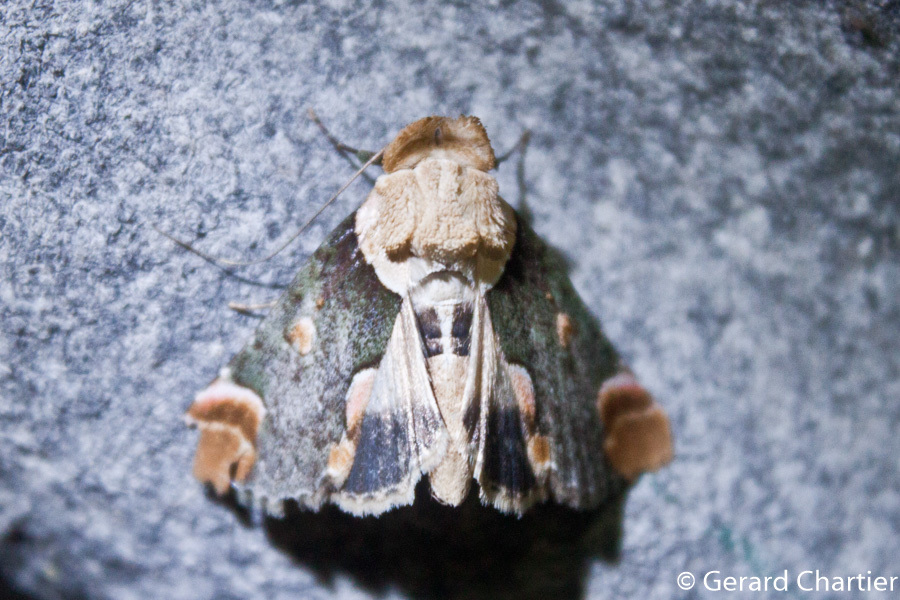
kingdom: Animalia
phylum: Arthropoda
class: Insecta
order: Lepidoptera
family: Nolidae
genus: Risoba
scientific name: Risoba repugnans
